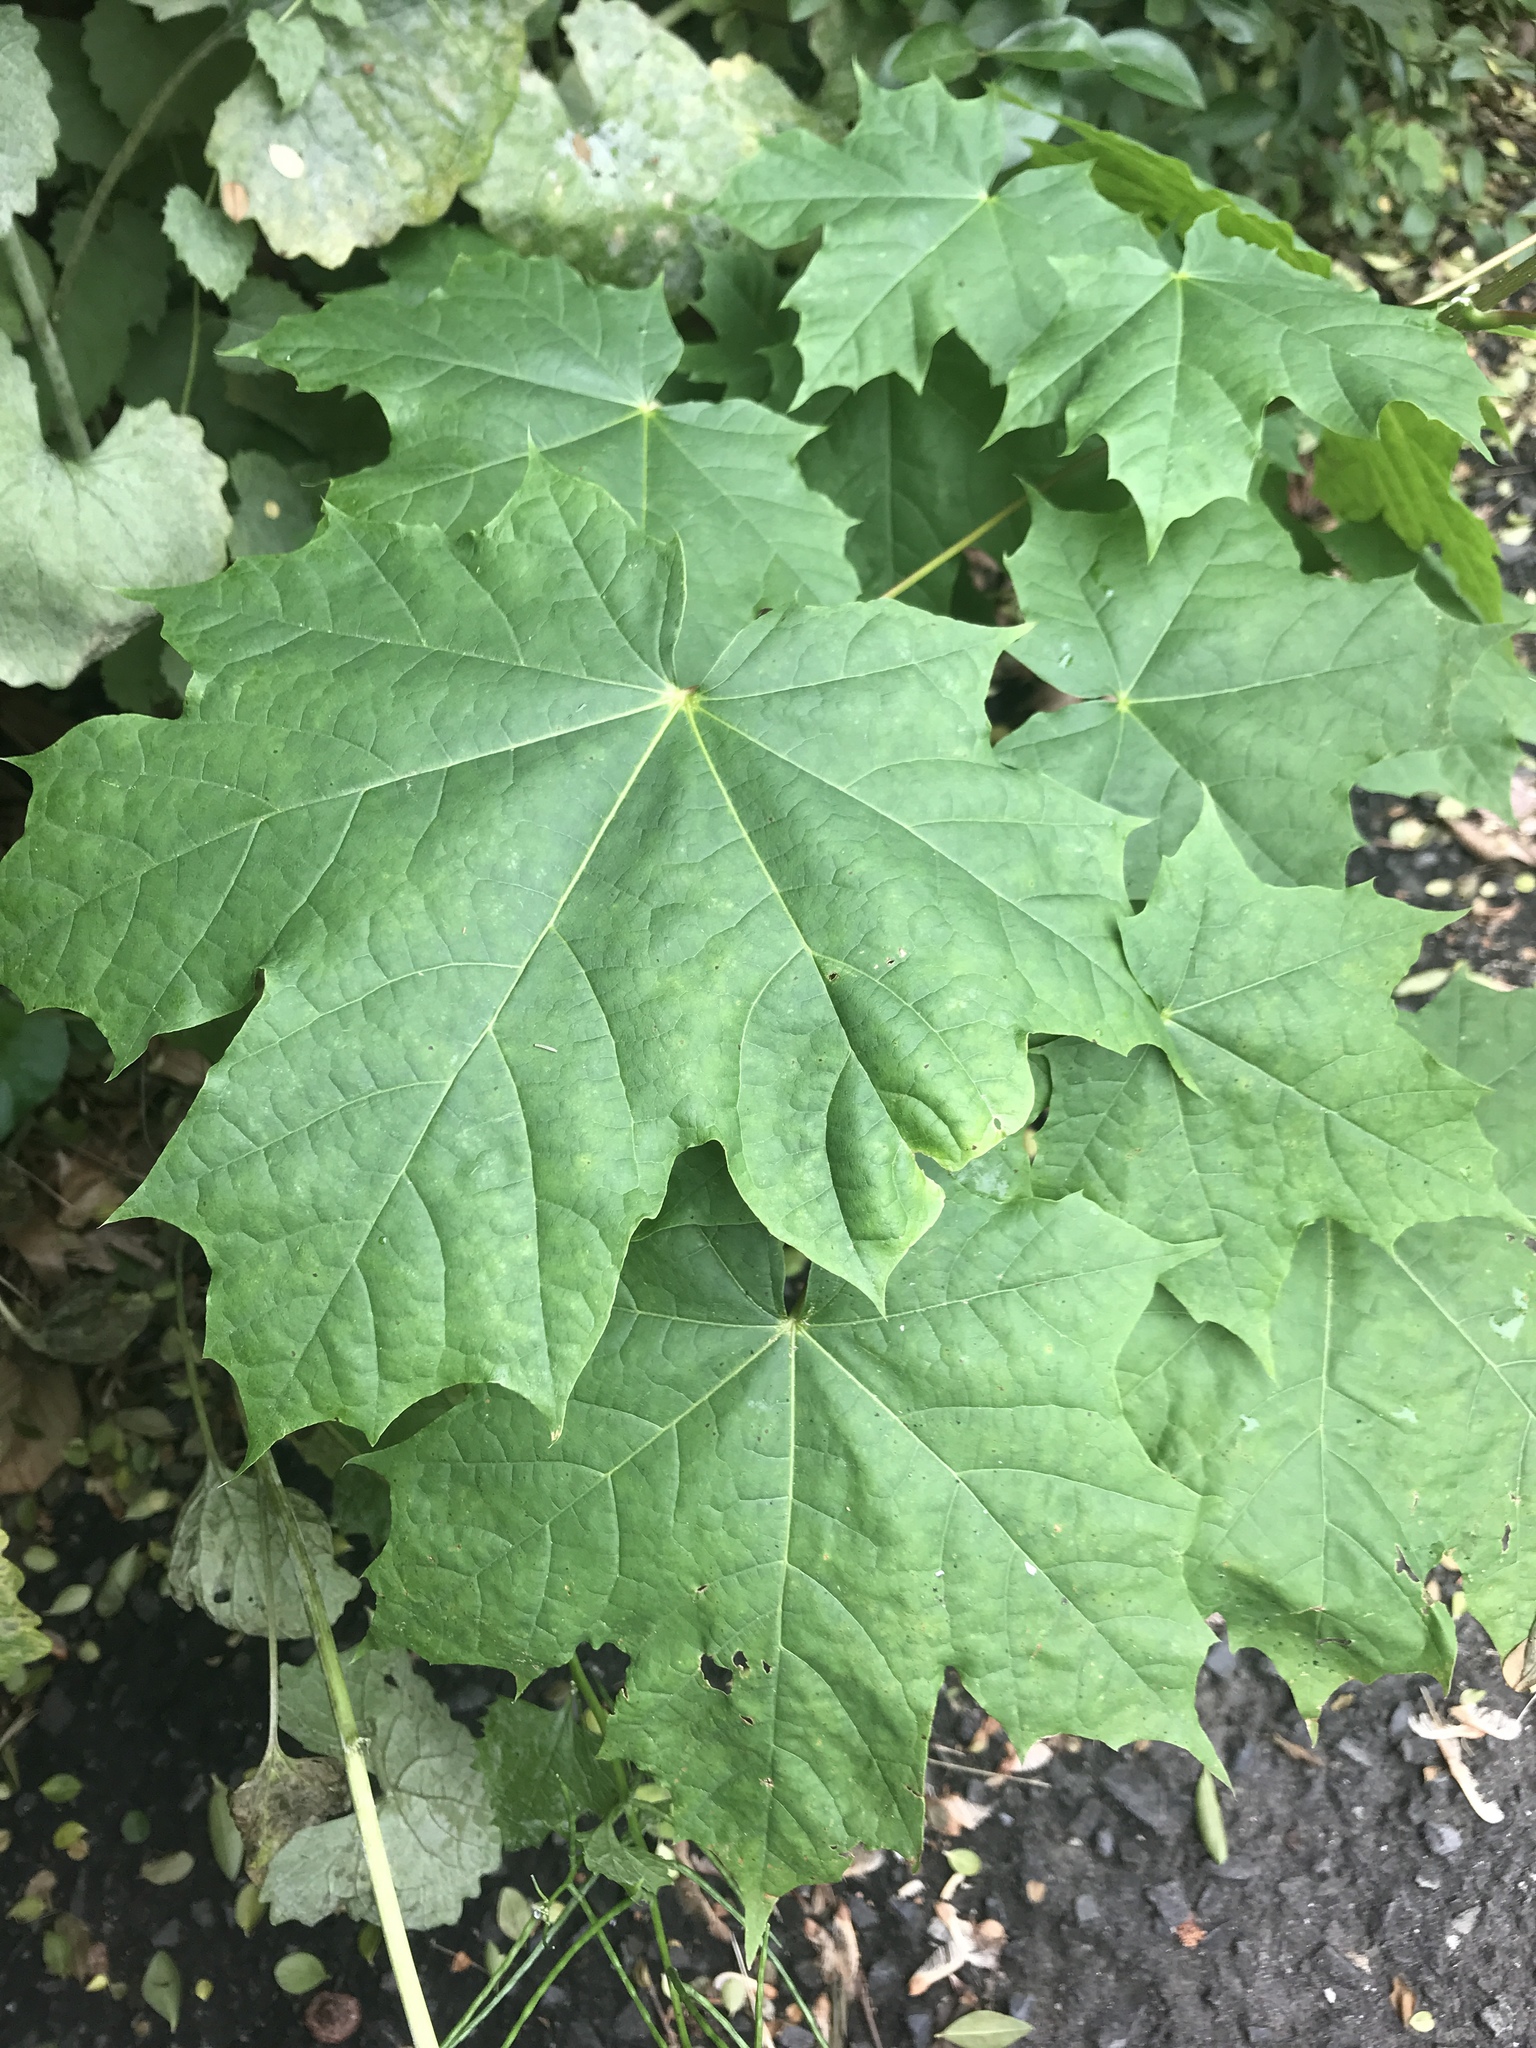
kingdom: Plantae
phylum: Tracheophyta
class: Magnoliopsida
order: Sapindales
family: Sapindaceae
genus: Acer
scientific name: Acer platanoides
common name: Norway maple
